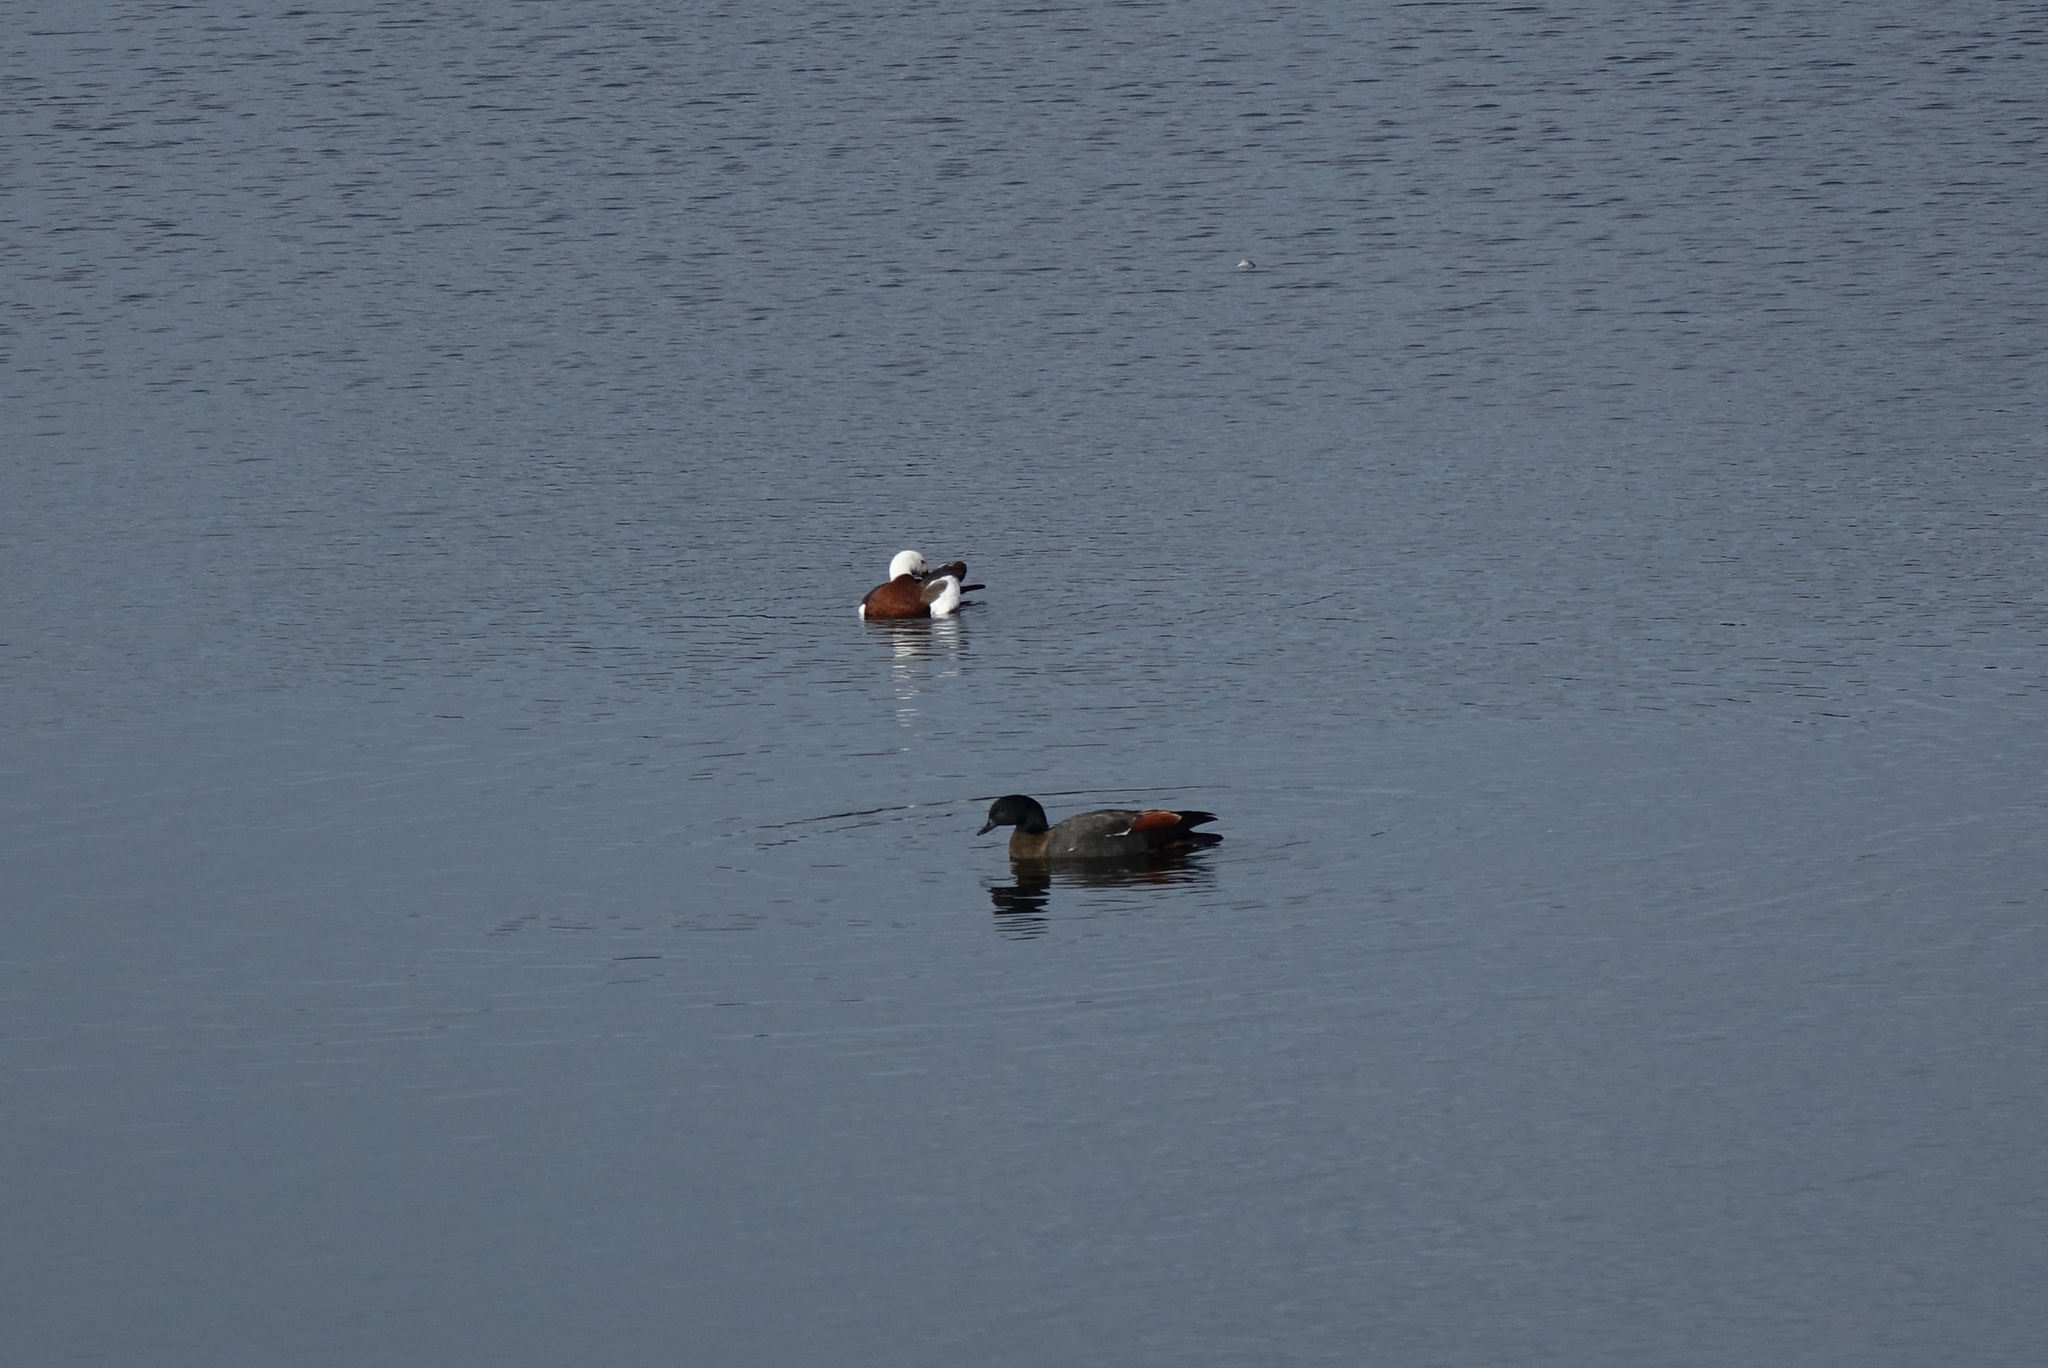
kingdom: Animalia
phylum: Chordata
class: Aves
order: Anseriformes
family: Anatidae
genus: Tadorna
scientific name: Tadorna variegata
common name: Paradise shelduck
